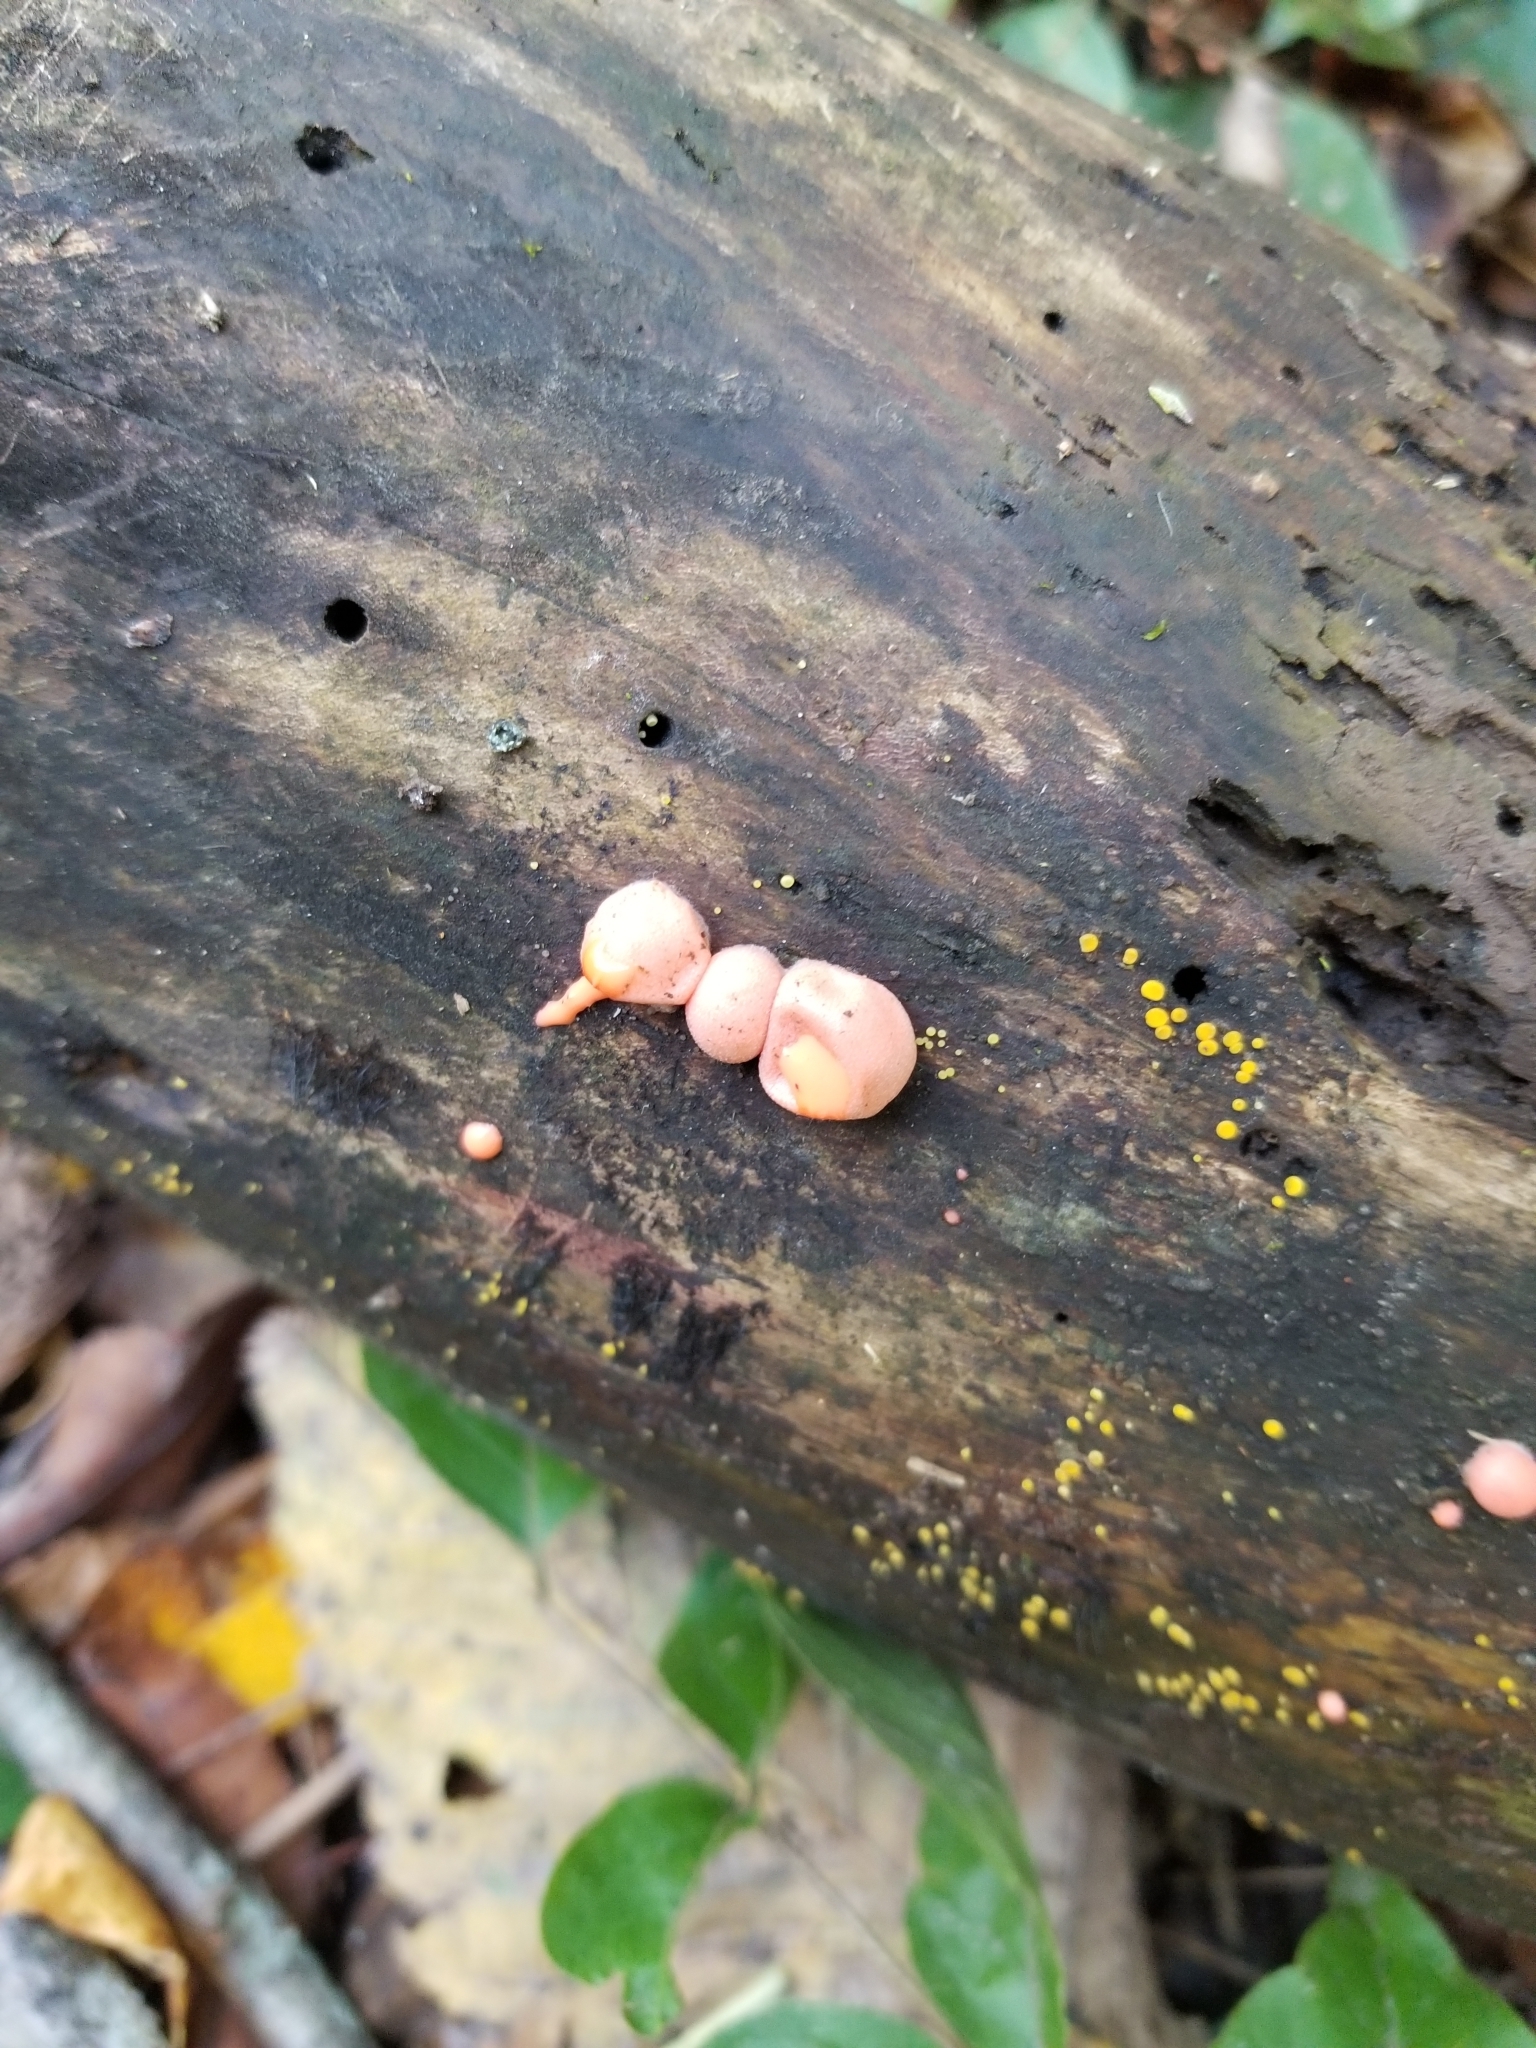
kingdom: Protozoa
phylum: Mycetozoa
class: Myxomycetes
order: Cribrariales
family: Tubiferaceae
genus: Lycogala
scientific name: Lycogala epidendrum
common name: Wolf's milk
